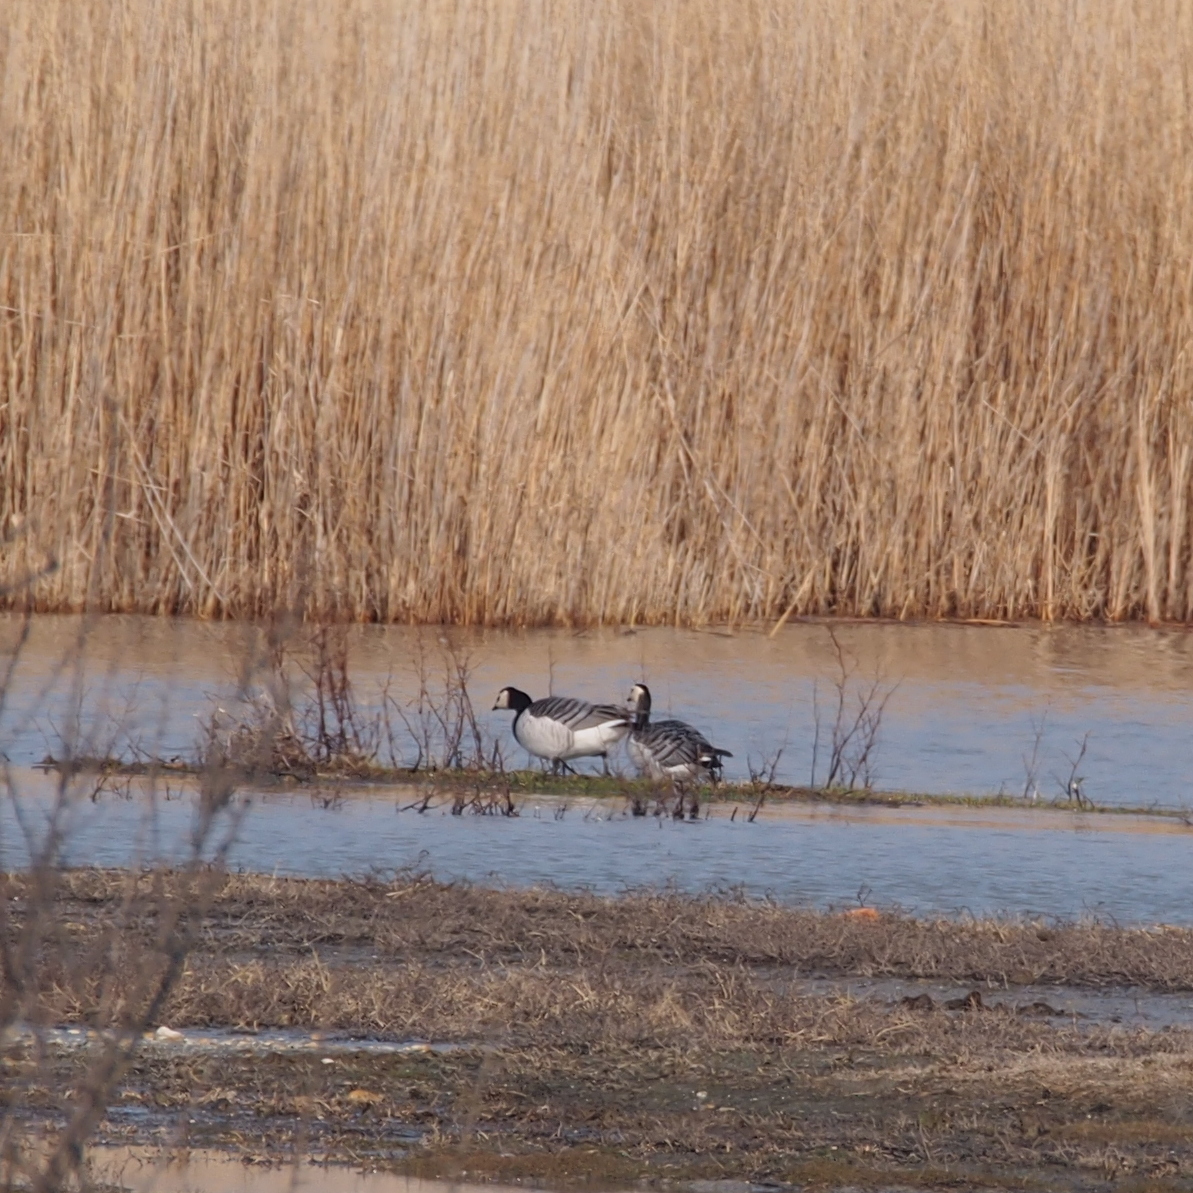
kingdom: Animalia
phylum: Chordata
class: Aves
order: Anseriformes
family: Anatidae
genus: Branta
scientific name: Branta leucopsis
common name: Barnacle goose
